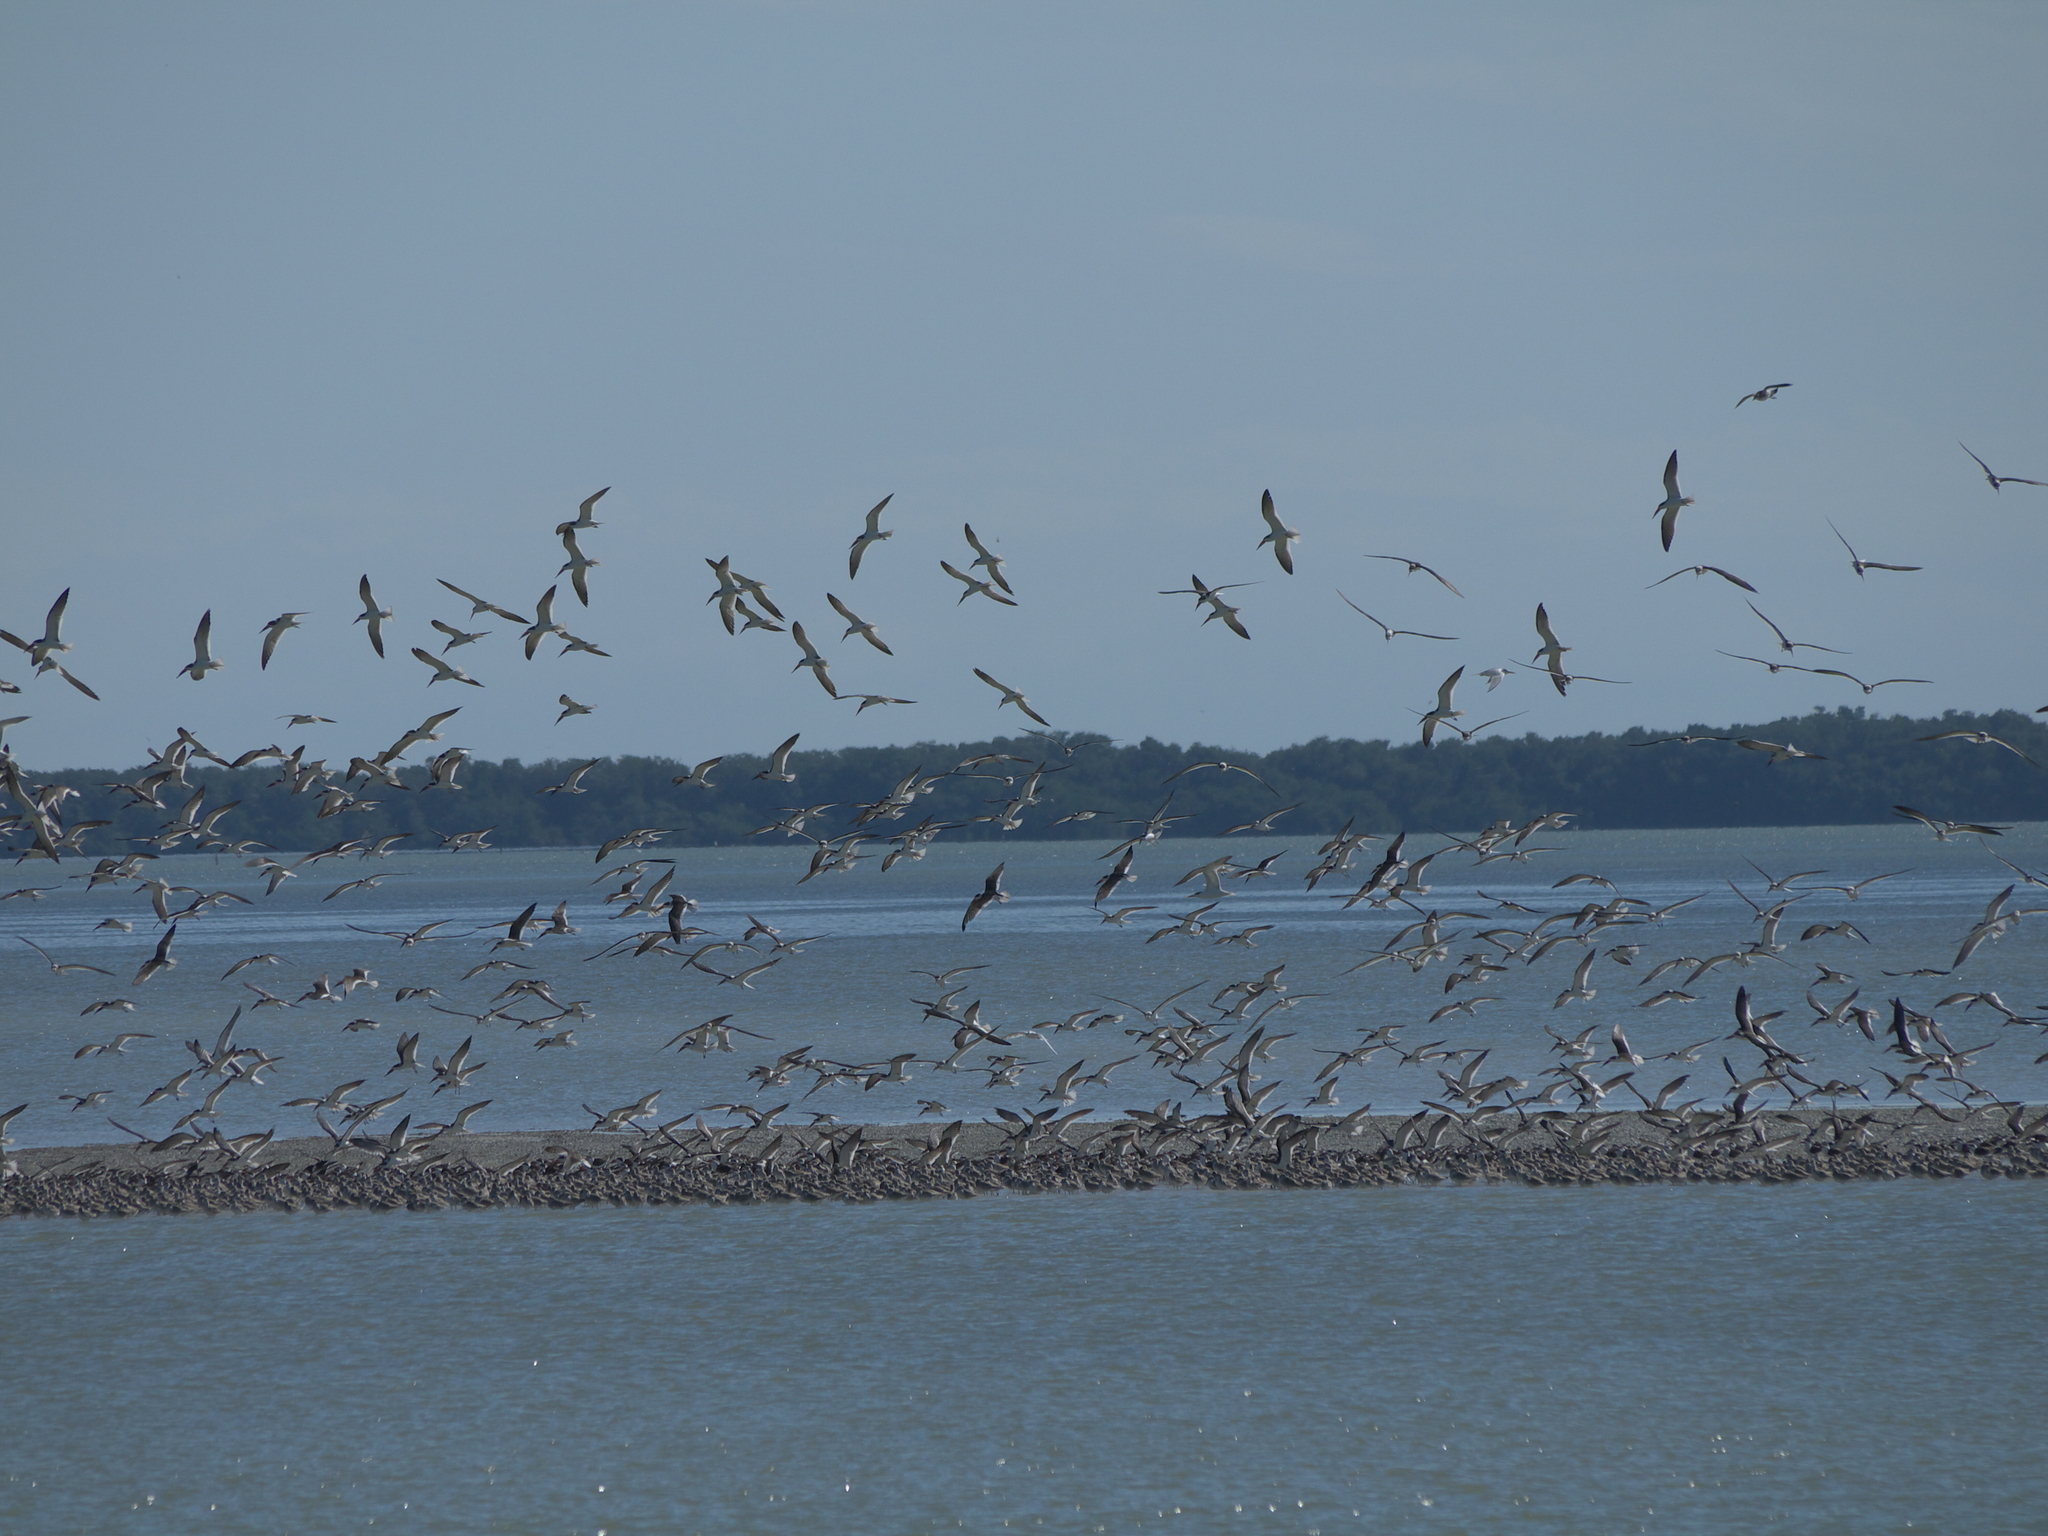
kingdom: Animalia
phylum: Chordata
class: Aves
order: Charadriiformes
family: Laridae
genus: Rynchops
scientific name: Rynchops niger
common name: Black skimmer
